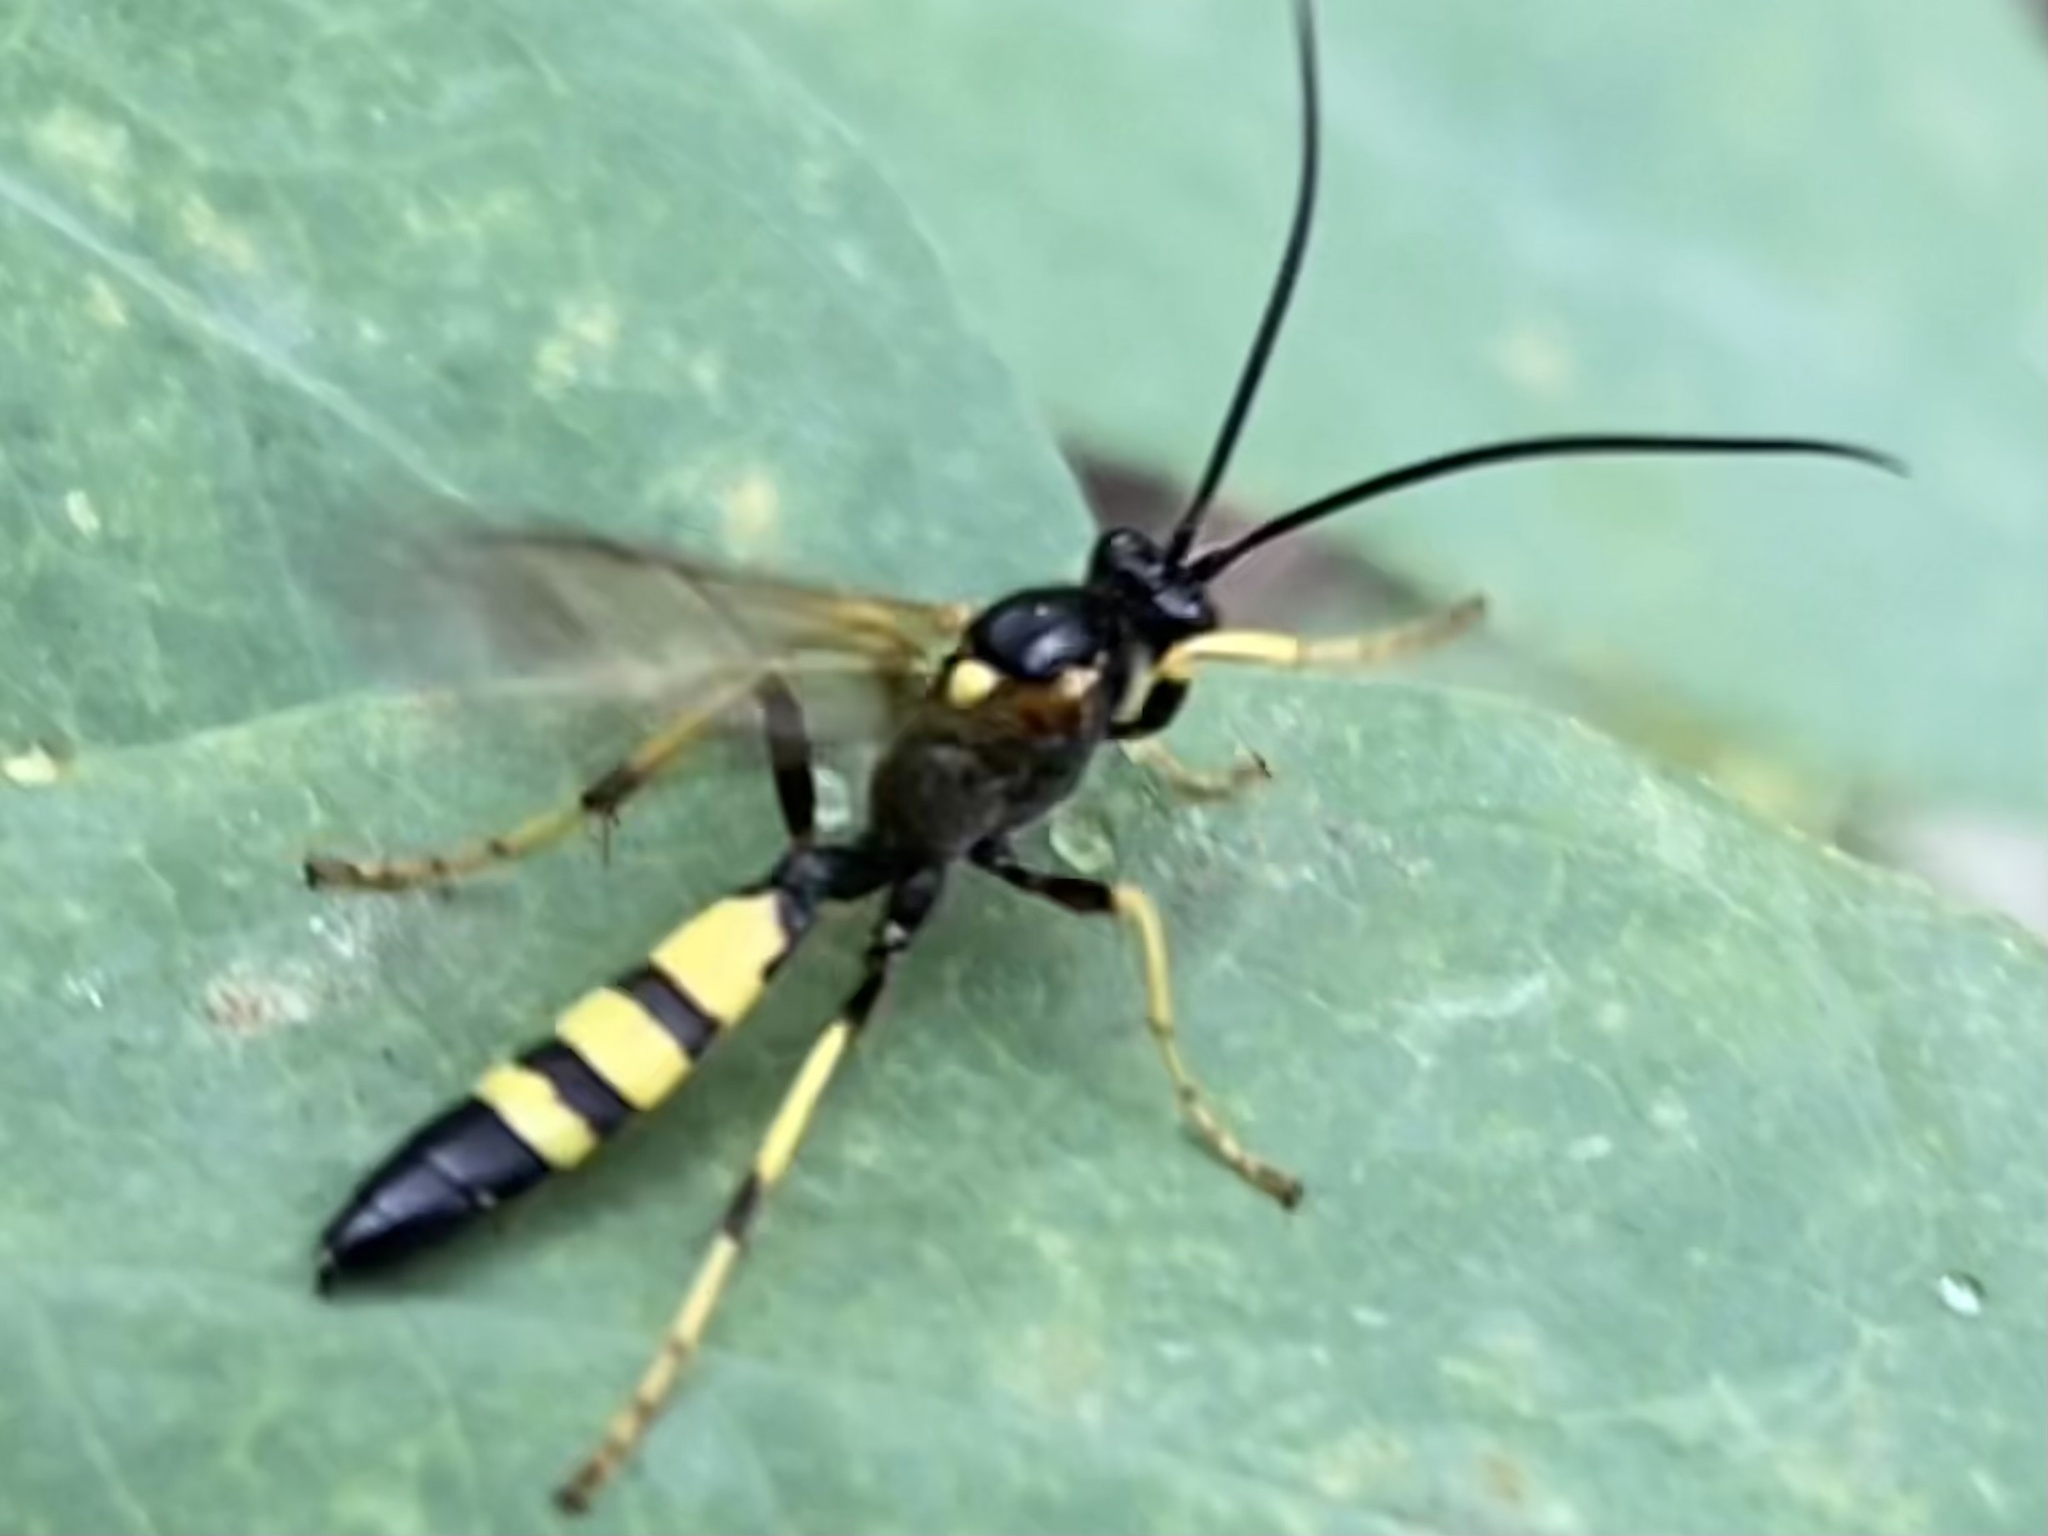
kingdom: Animalia
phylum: Arthropoda
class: Insecta
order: Hymenoptera
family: Ichneumonidae
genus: Ichneumon
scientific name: Ichneumon
